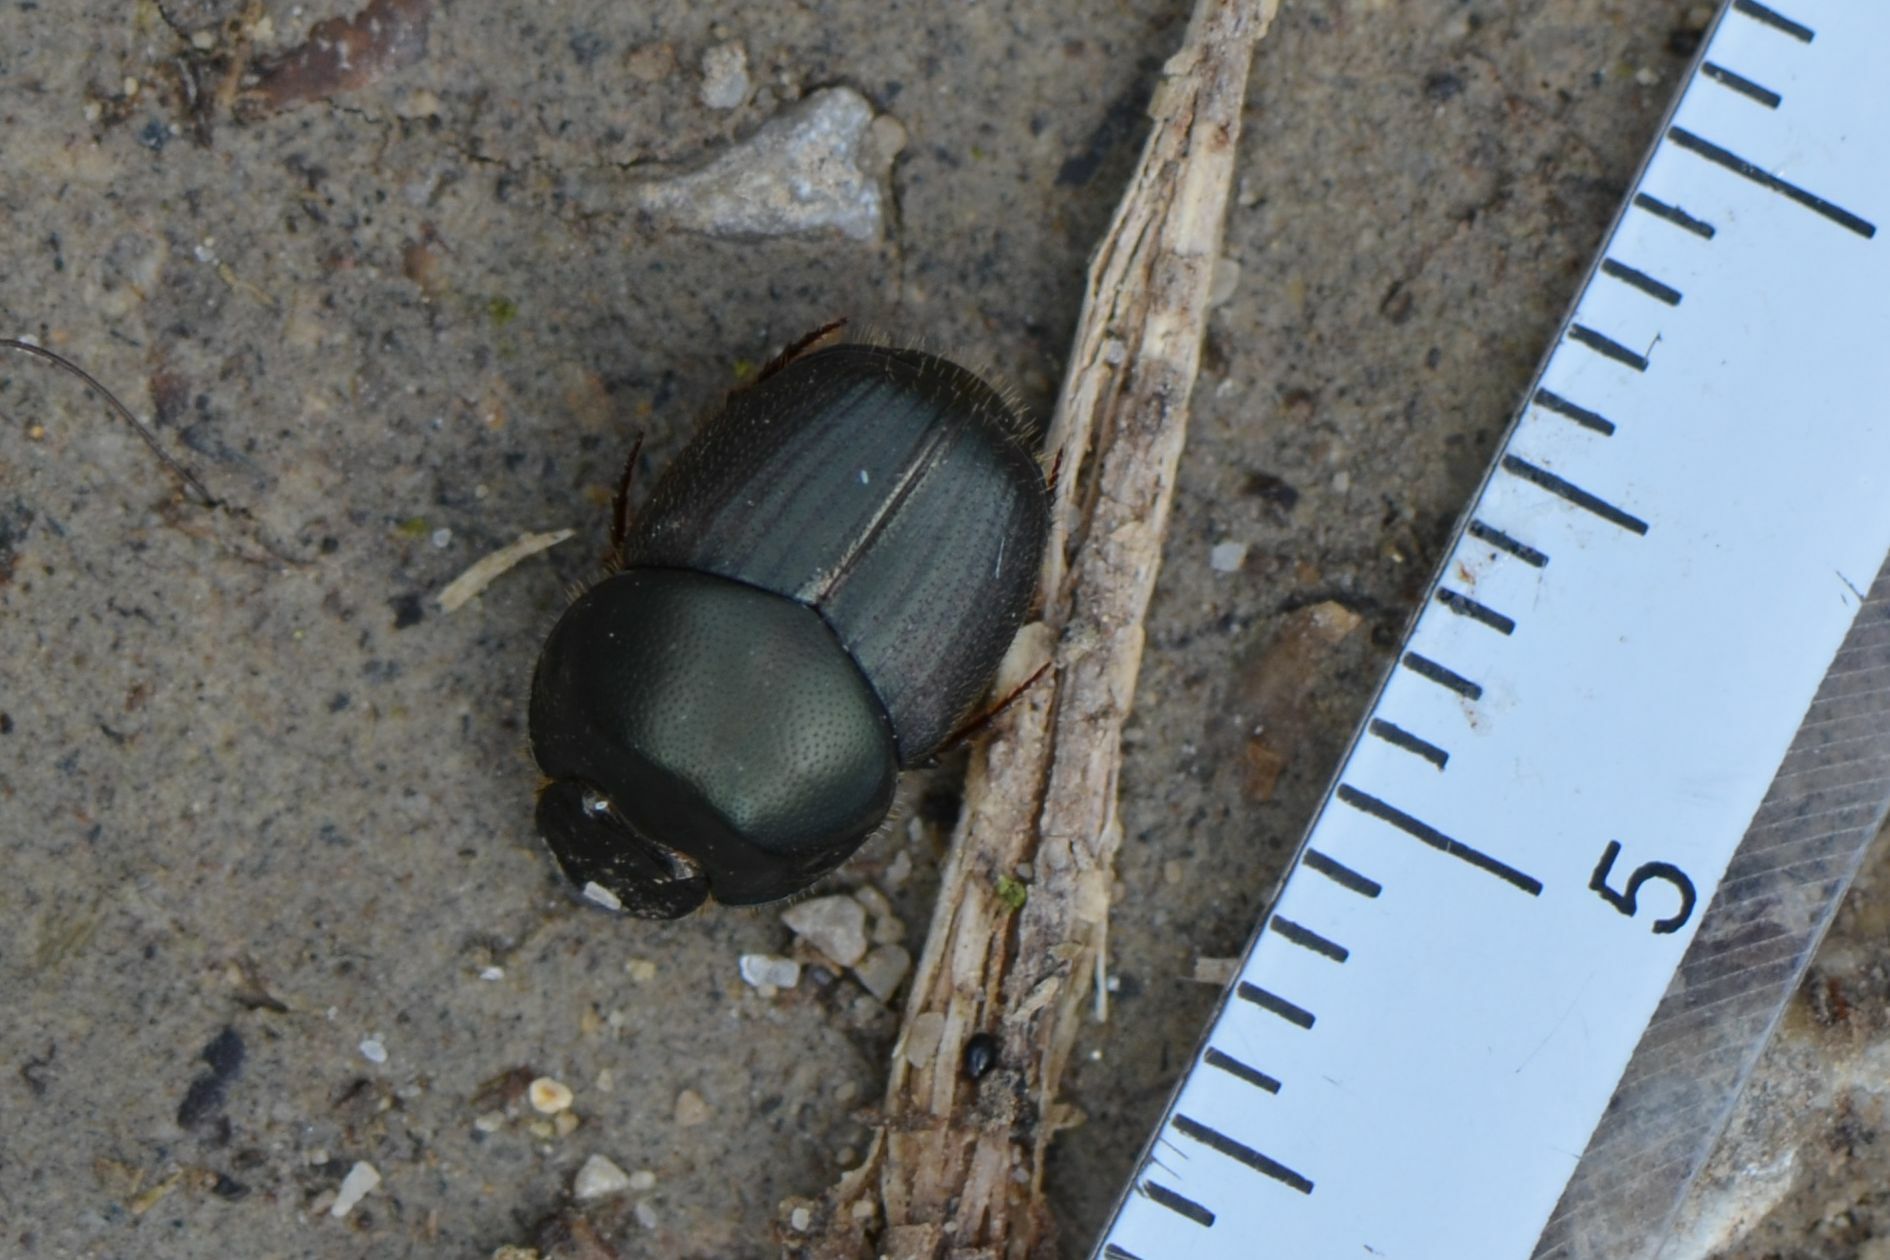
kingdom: Animalia
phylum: Arthropoda
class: Insecta
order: Coleoptera
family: Scarabaeidae
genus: Onthophagus
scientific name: Onthophagus illyricus
